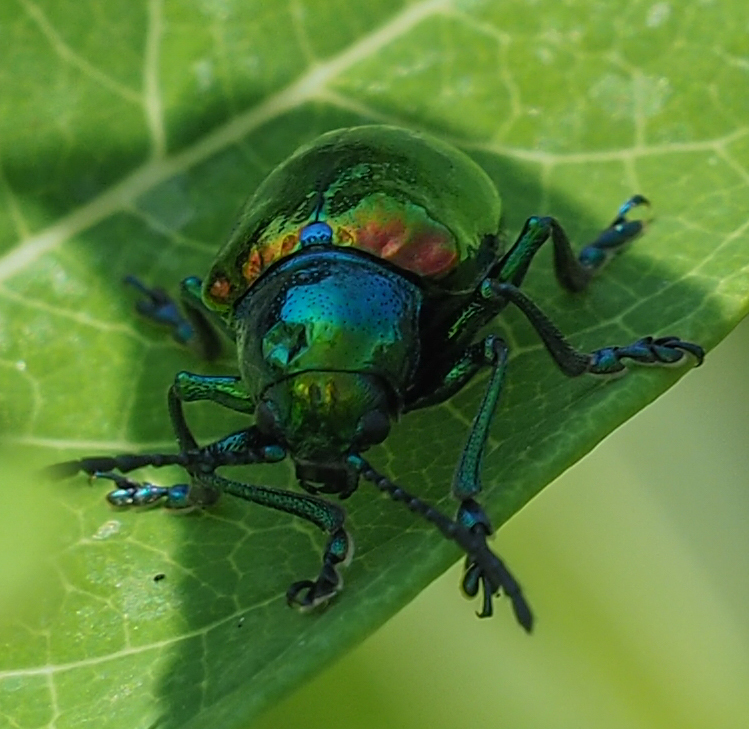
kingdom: Animalia
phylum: Arthropoda
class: Insecta
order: Coleoptera
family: Chrysomelidae
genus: Chrysochus
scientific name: Chrysochus auratus
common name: Dogbane leaf beetle
